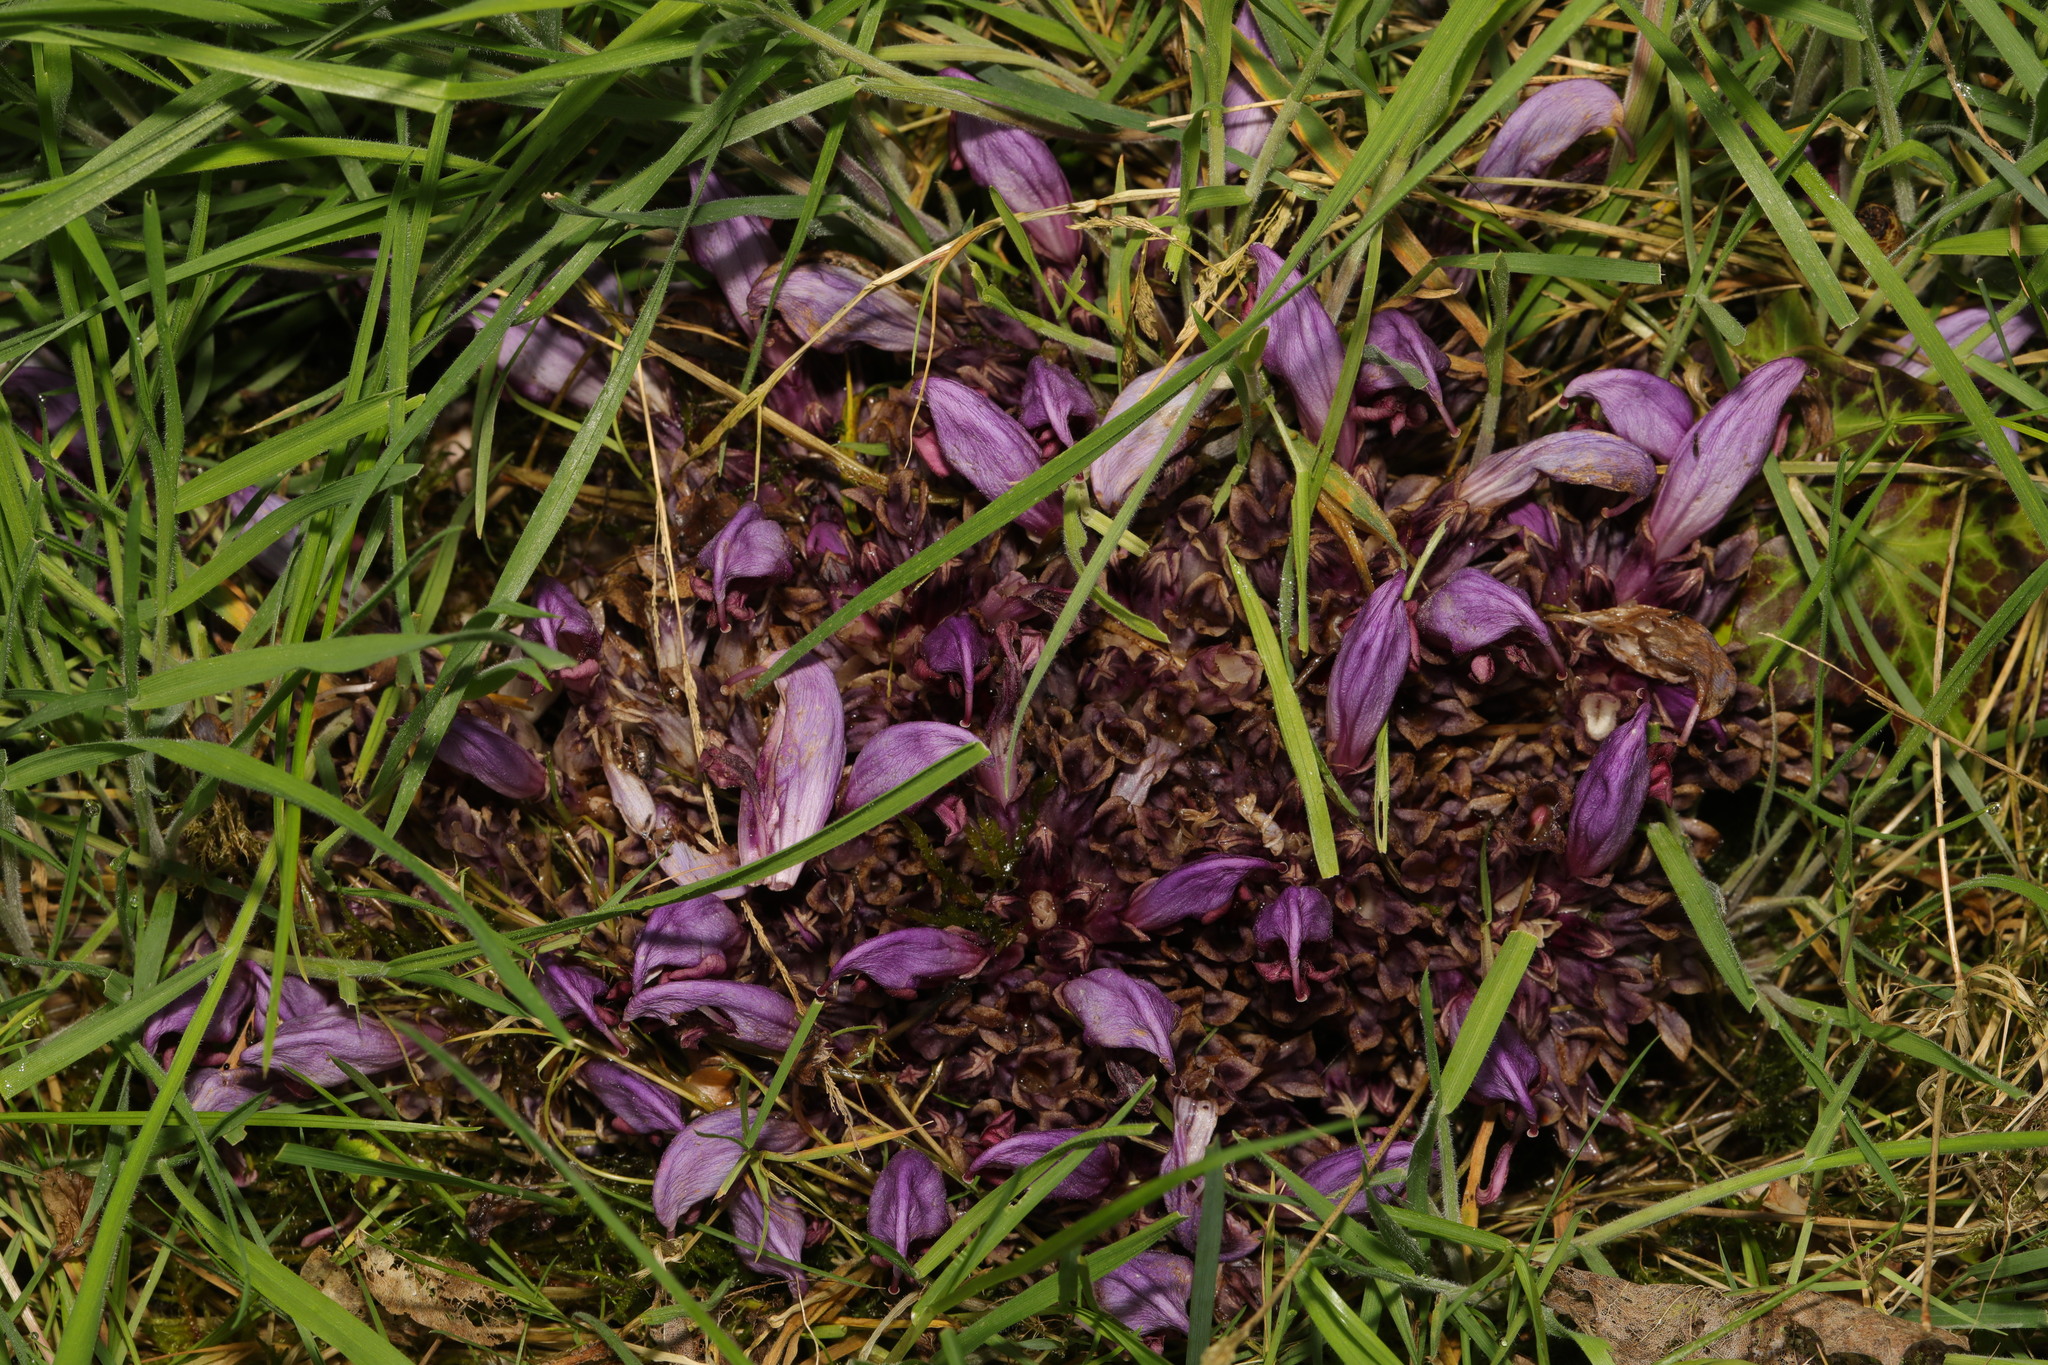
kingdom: Plantae
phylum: Tracheophyta
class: Magnoliopsida
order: Lamiales
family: Orobanchaceae
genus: Lathraea
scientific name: Lathraea clandestina
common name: Purple toothwort
